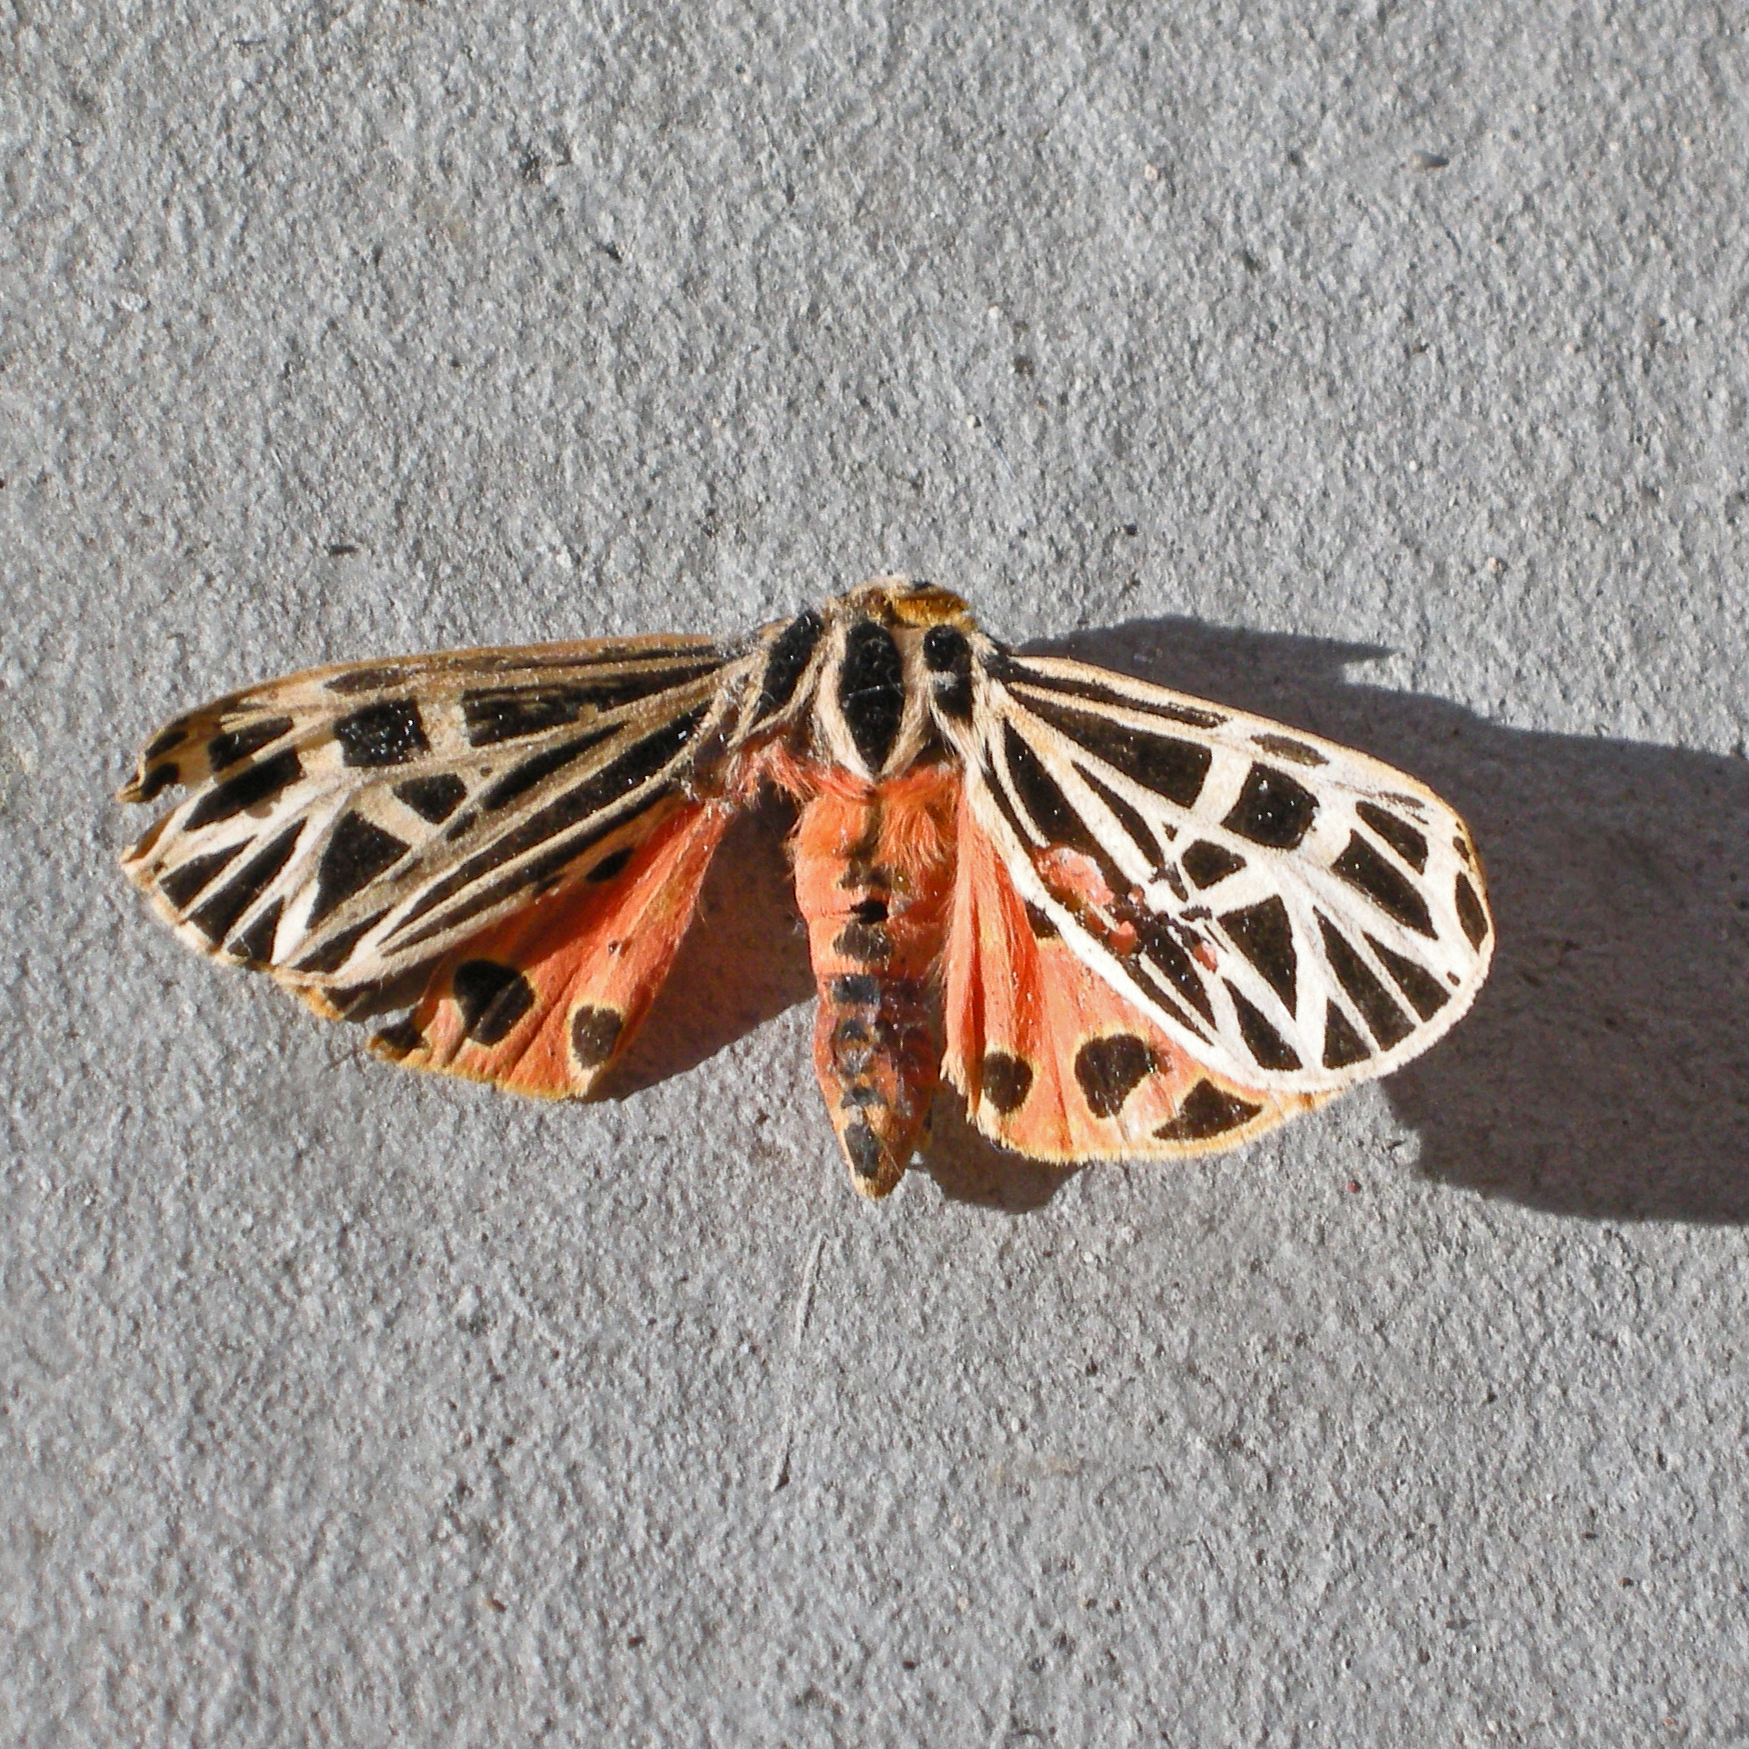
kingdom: Animalia
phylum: Arthropoda
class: Insecta
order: Lepidoptera
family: Erebidae
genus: Grammia
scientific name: Grammia virgo
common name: Virgin tiger moth
